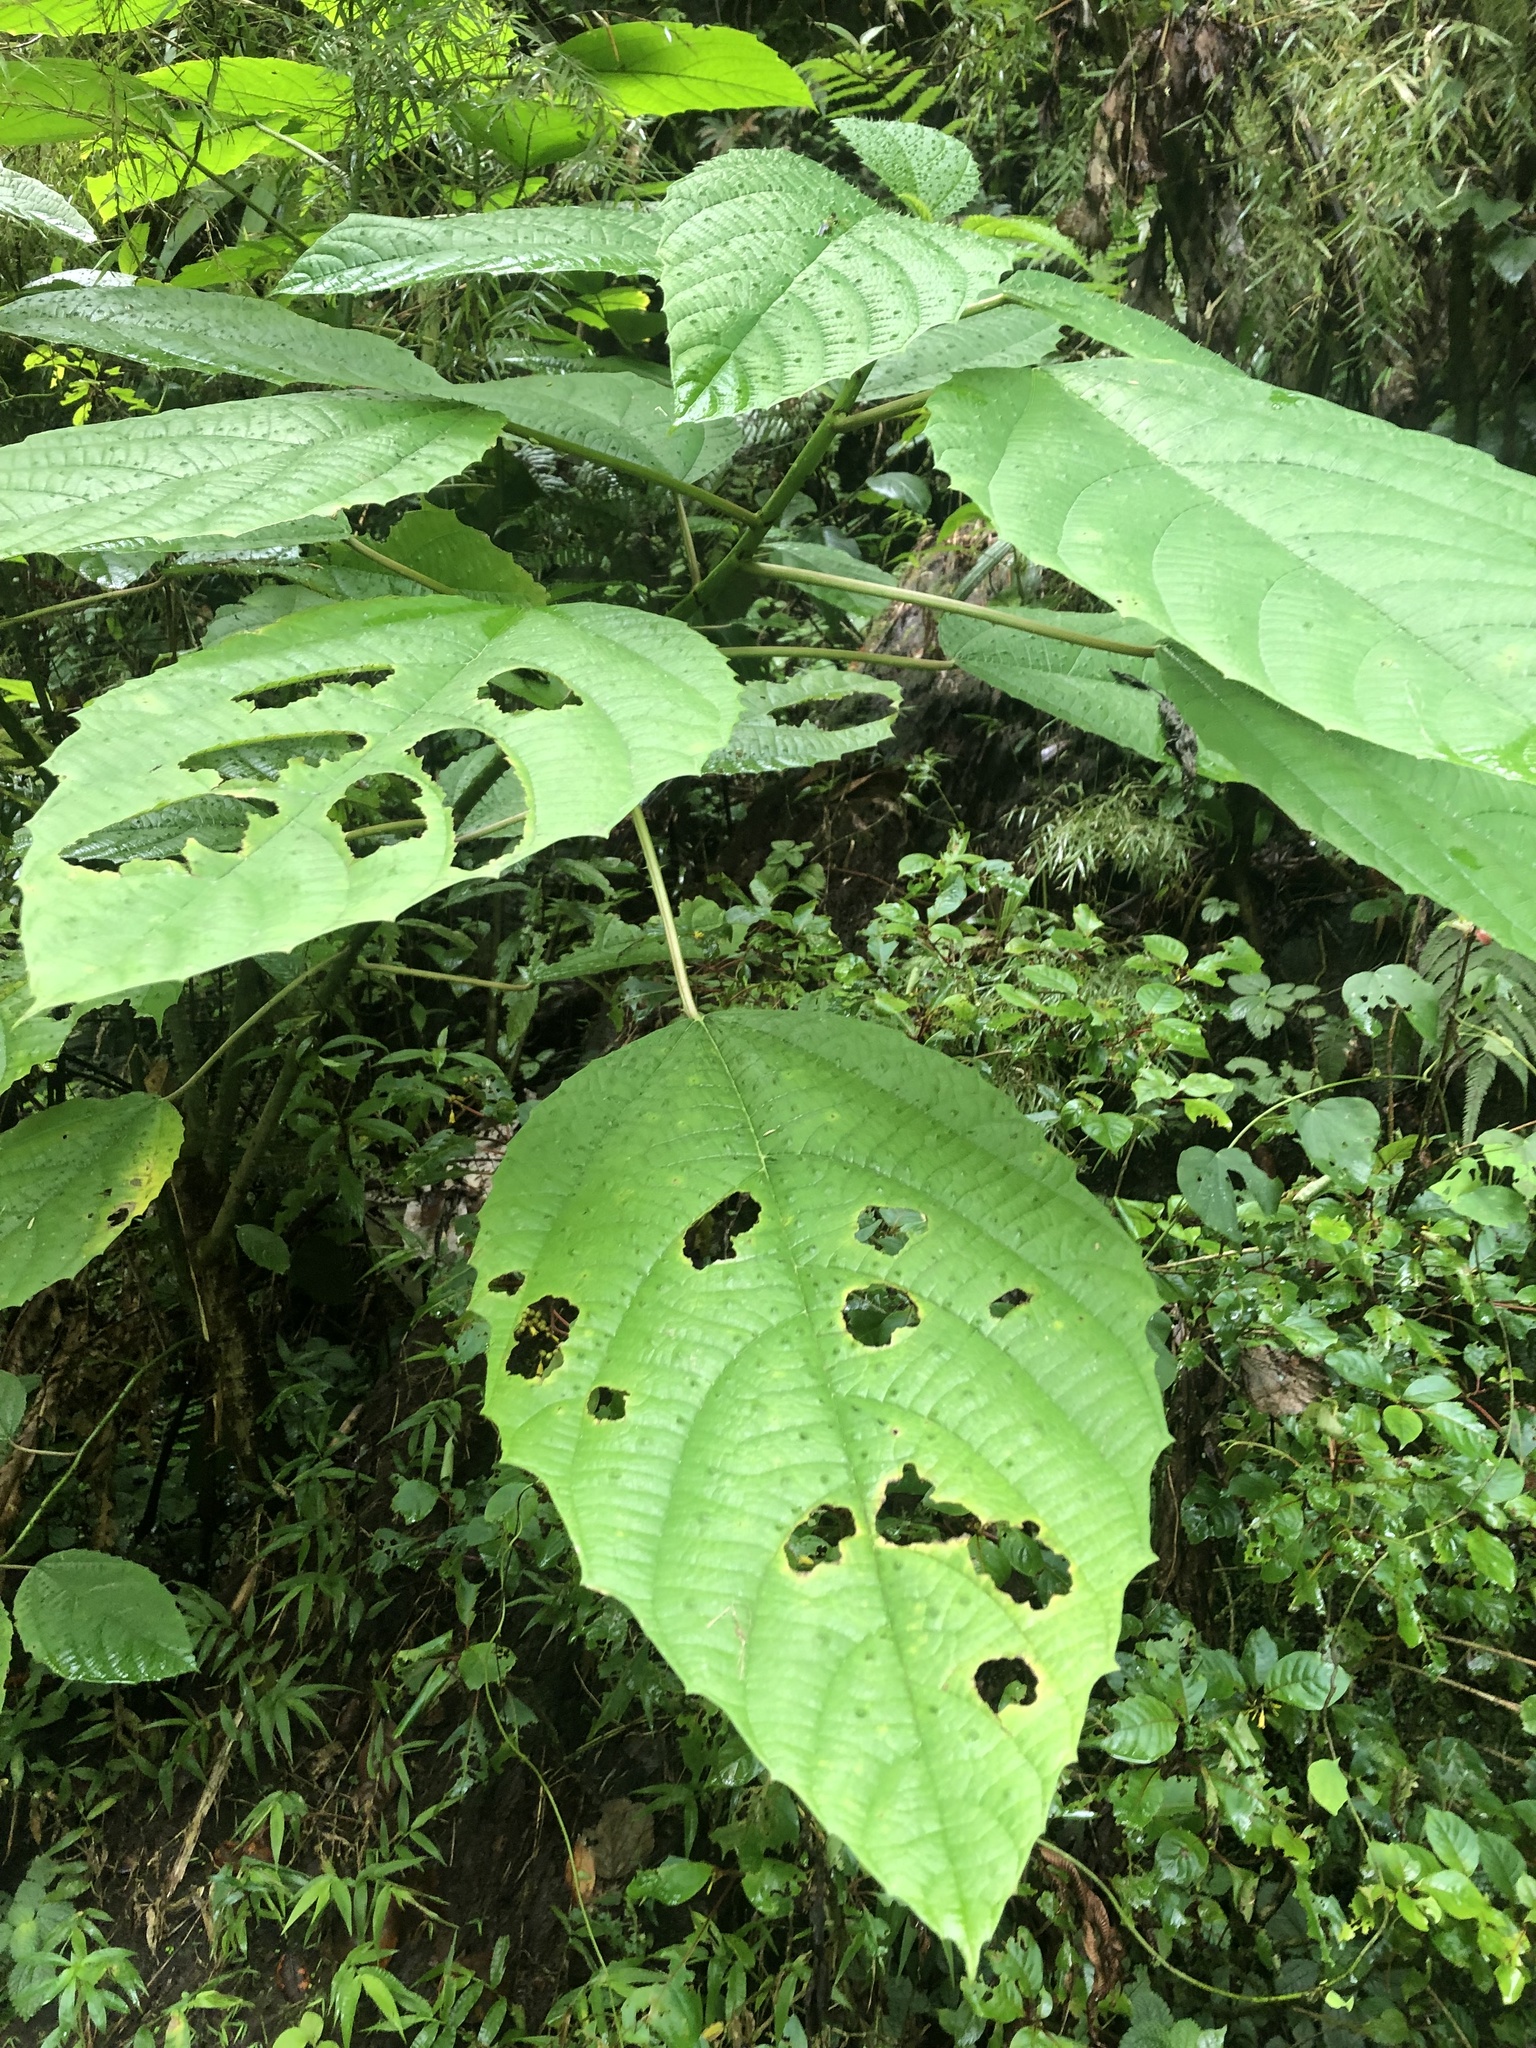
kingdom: Plantae
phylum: Tracheophyta
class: Magnoliopsida
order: Rosales
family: Urticaceae
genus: Urera
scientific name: Urera baccifera
